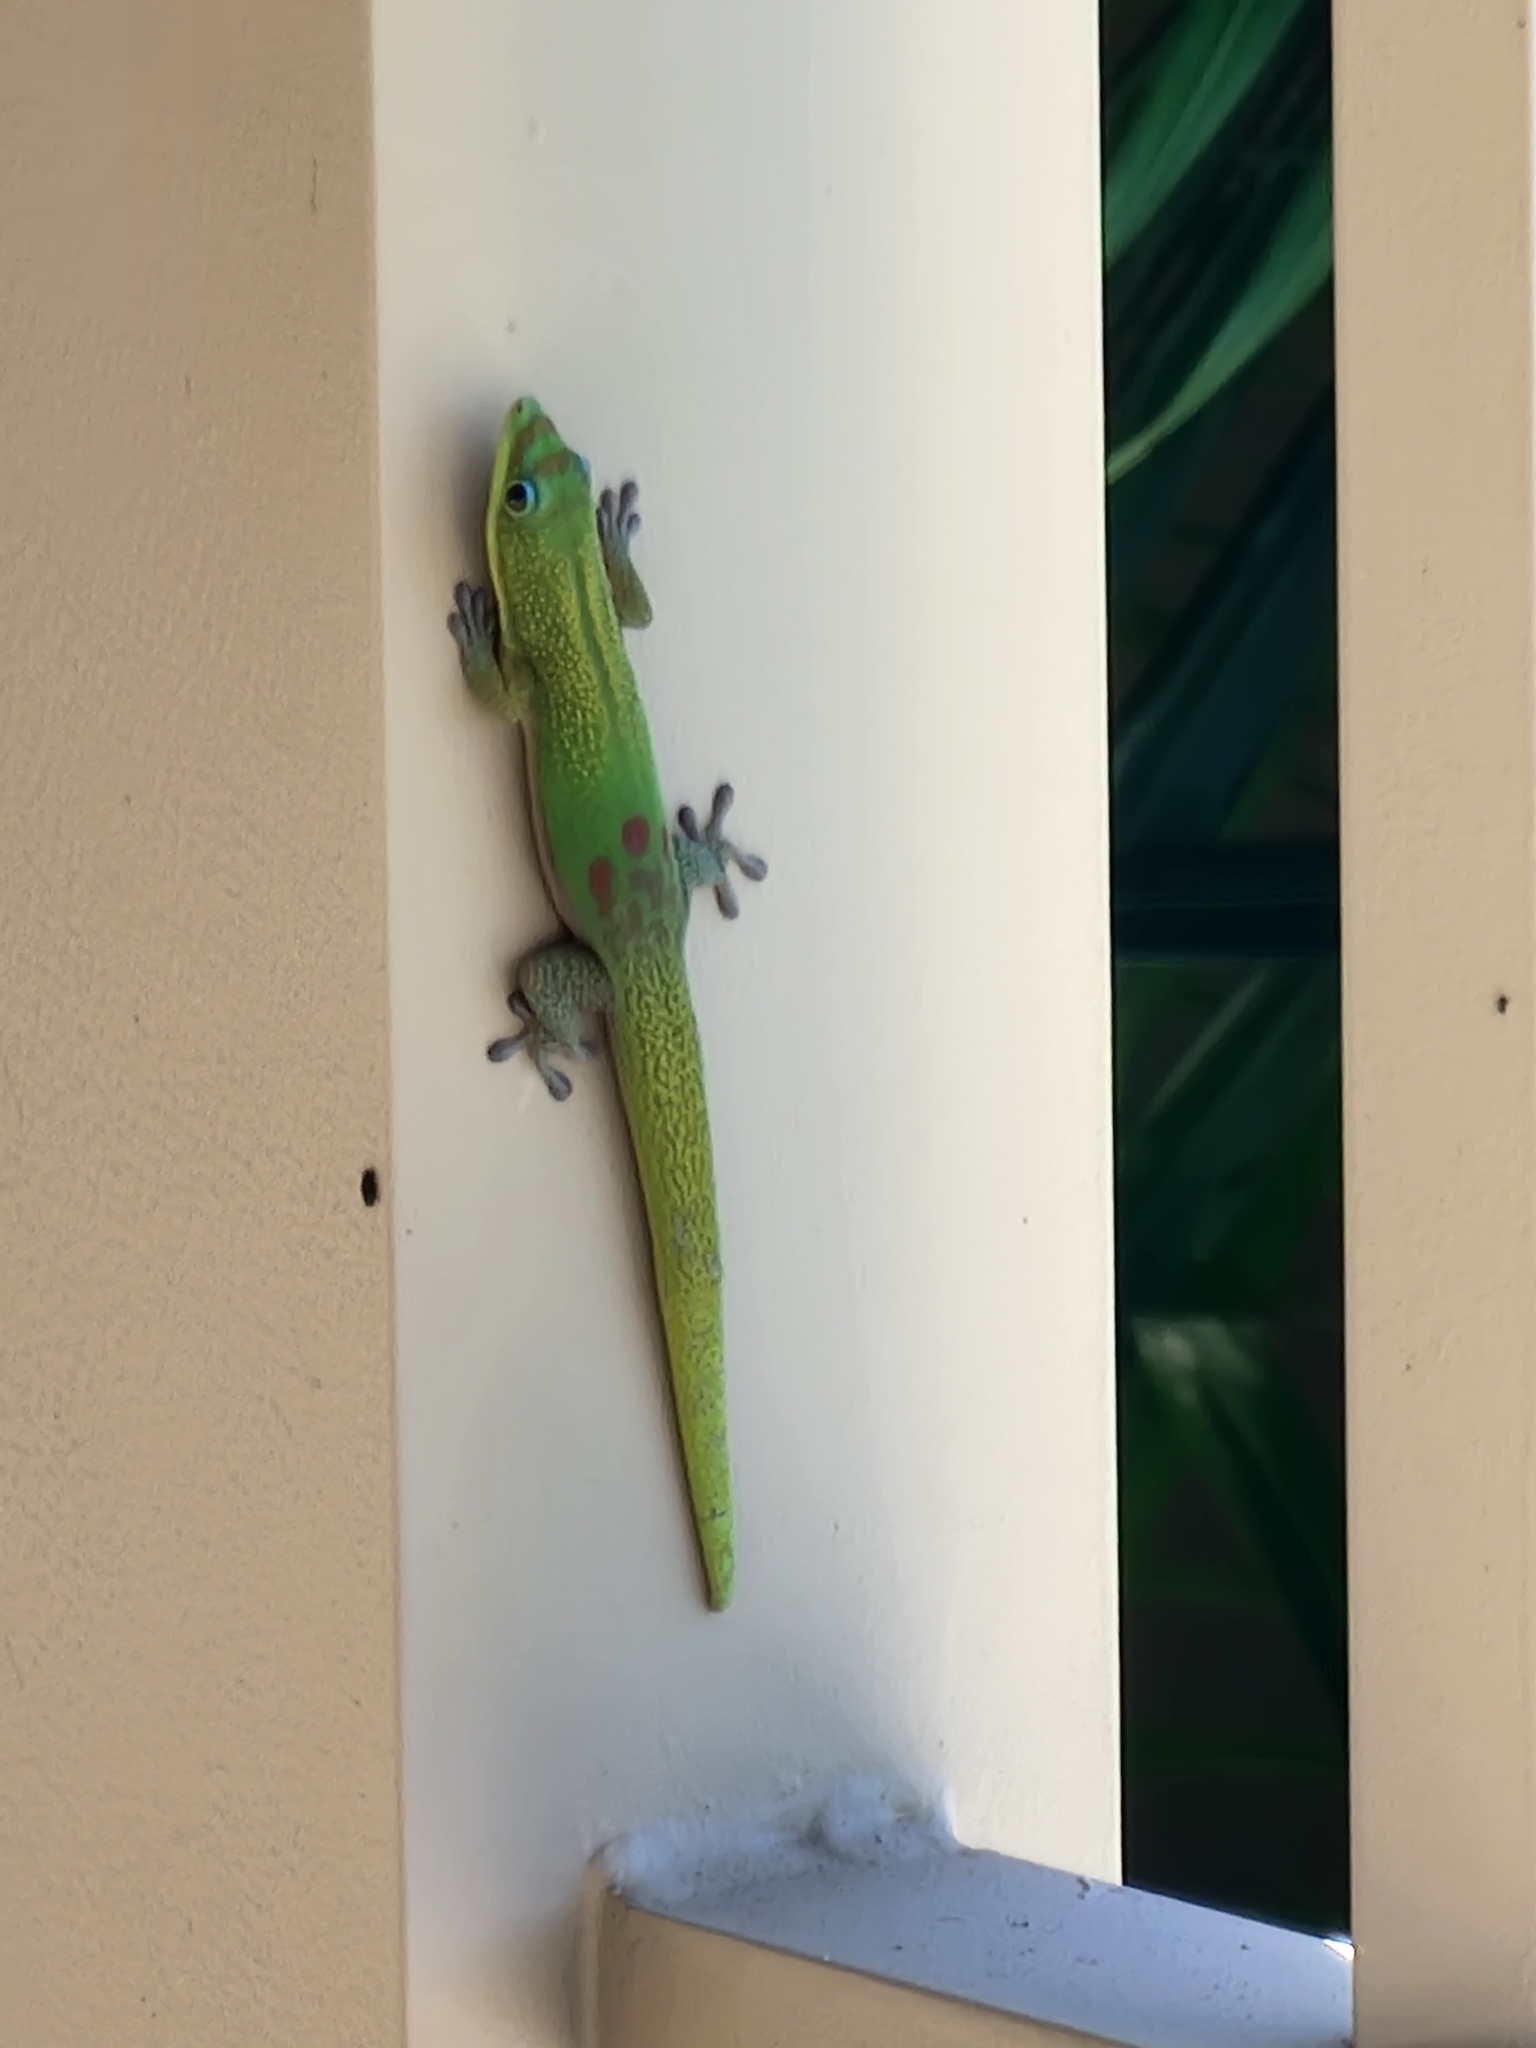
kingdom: Animalia
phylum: Chordata
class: Squamata
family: Gekkonidae
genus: Phelsuma
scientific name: Phelsuma laticauda
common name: Gold dust day gecko
